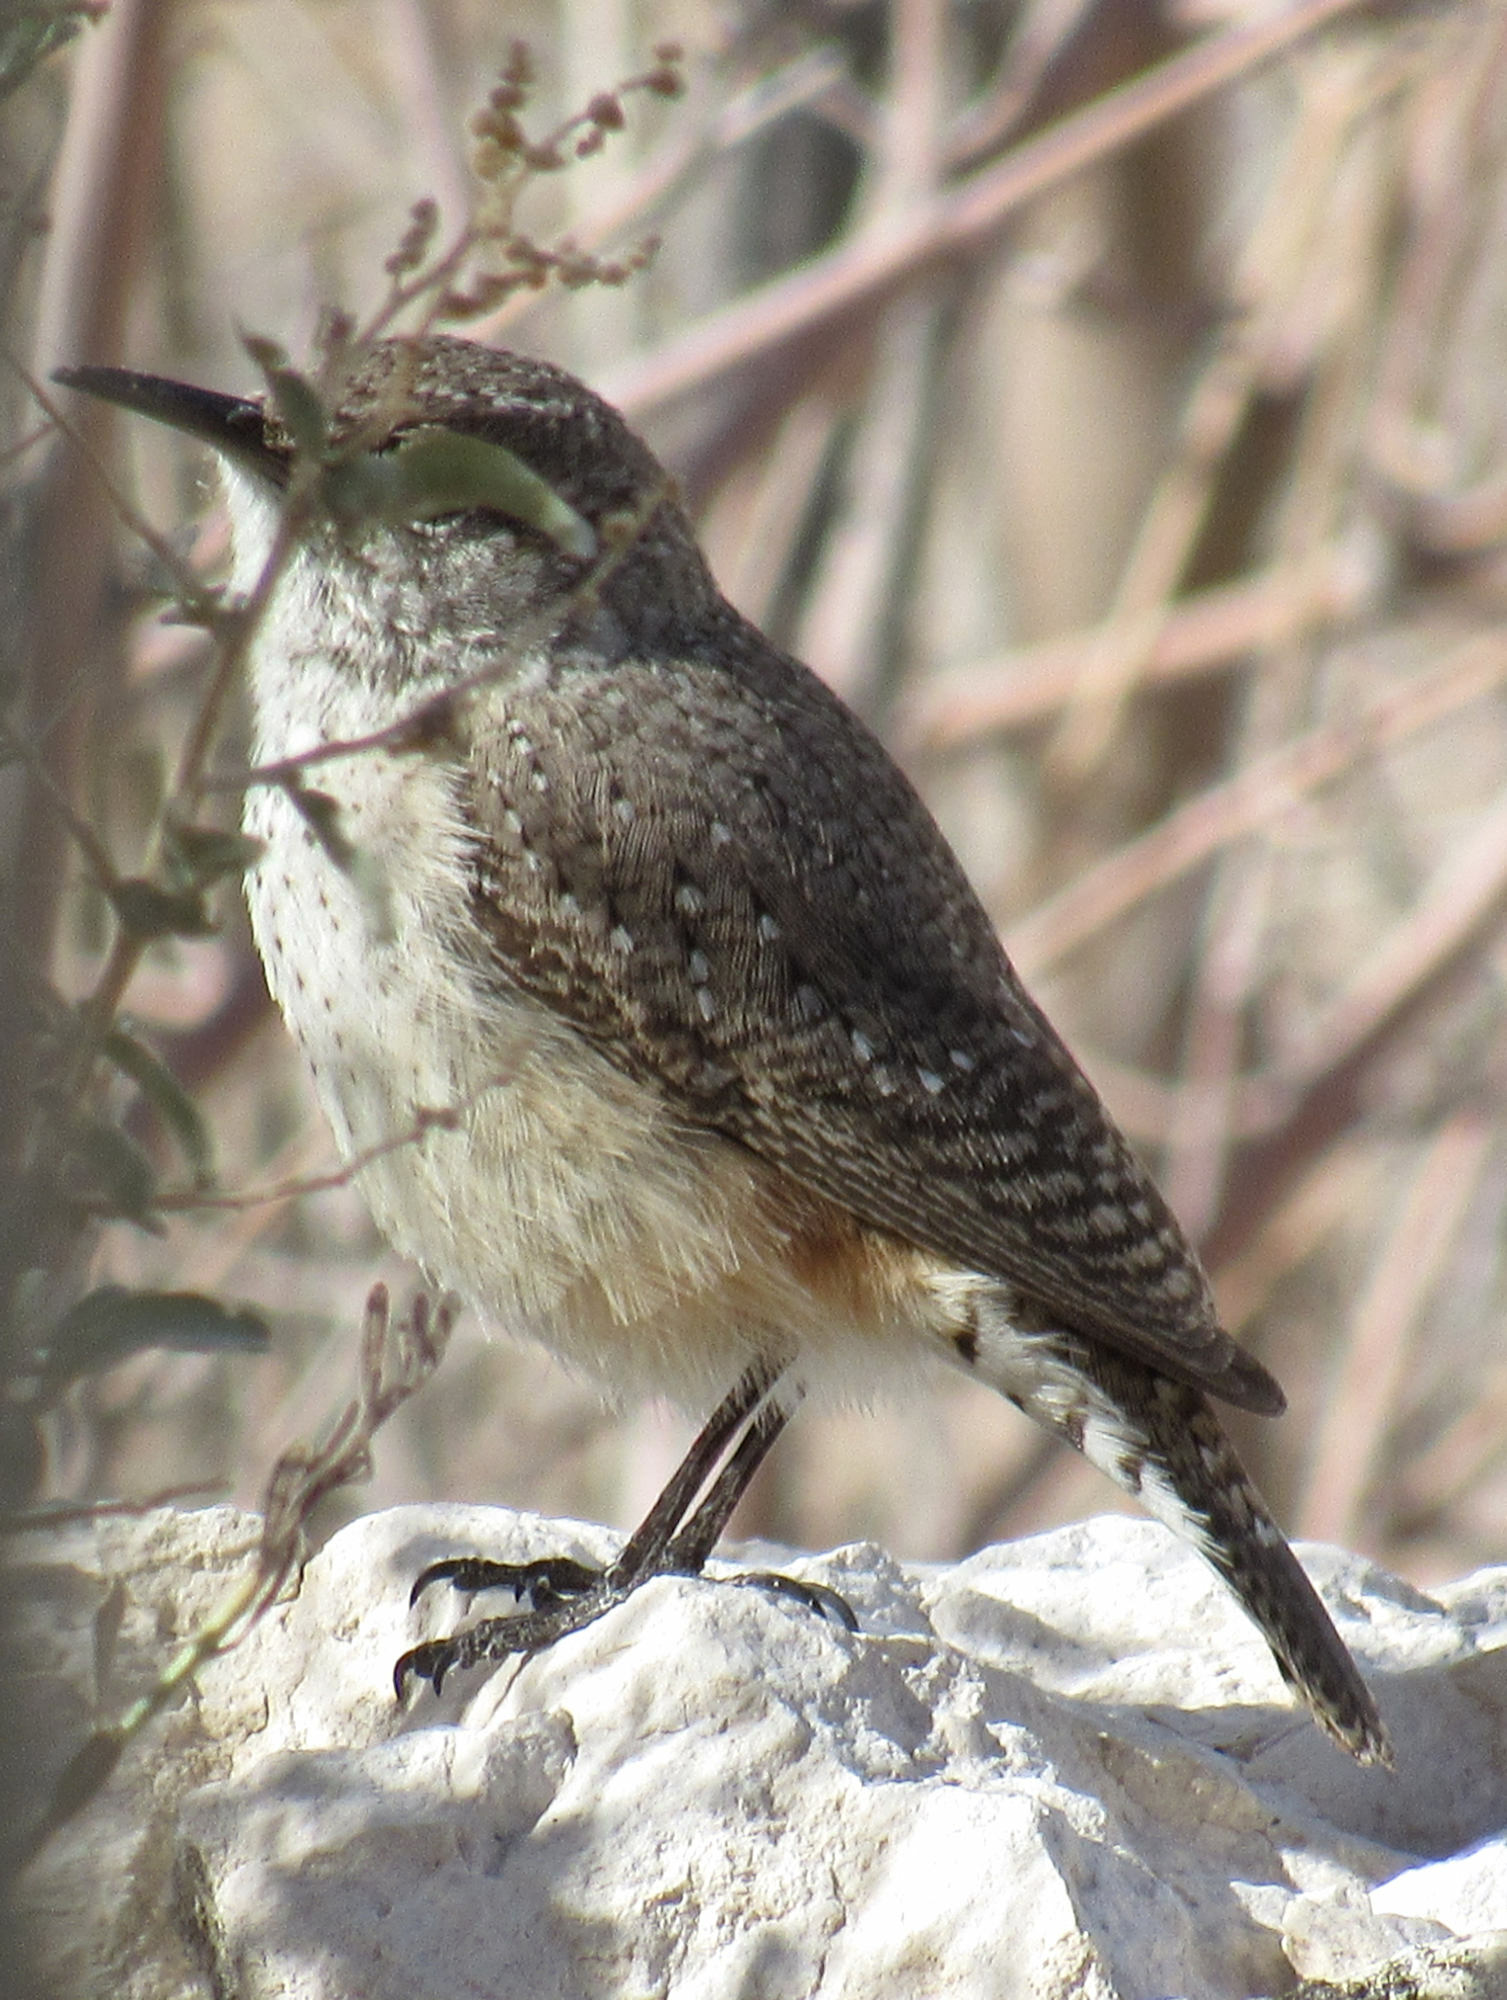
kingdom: Animalia
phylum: Chordata
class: Aves
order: Passeriformes
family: Troglodytidae
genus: Salpinctes
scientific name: Salpinctes obsoletus
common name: Rock wren
